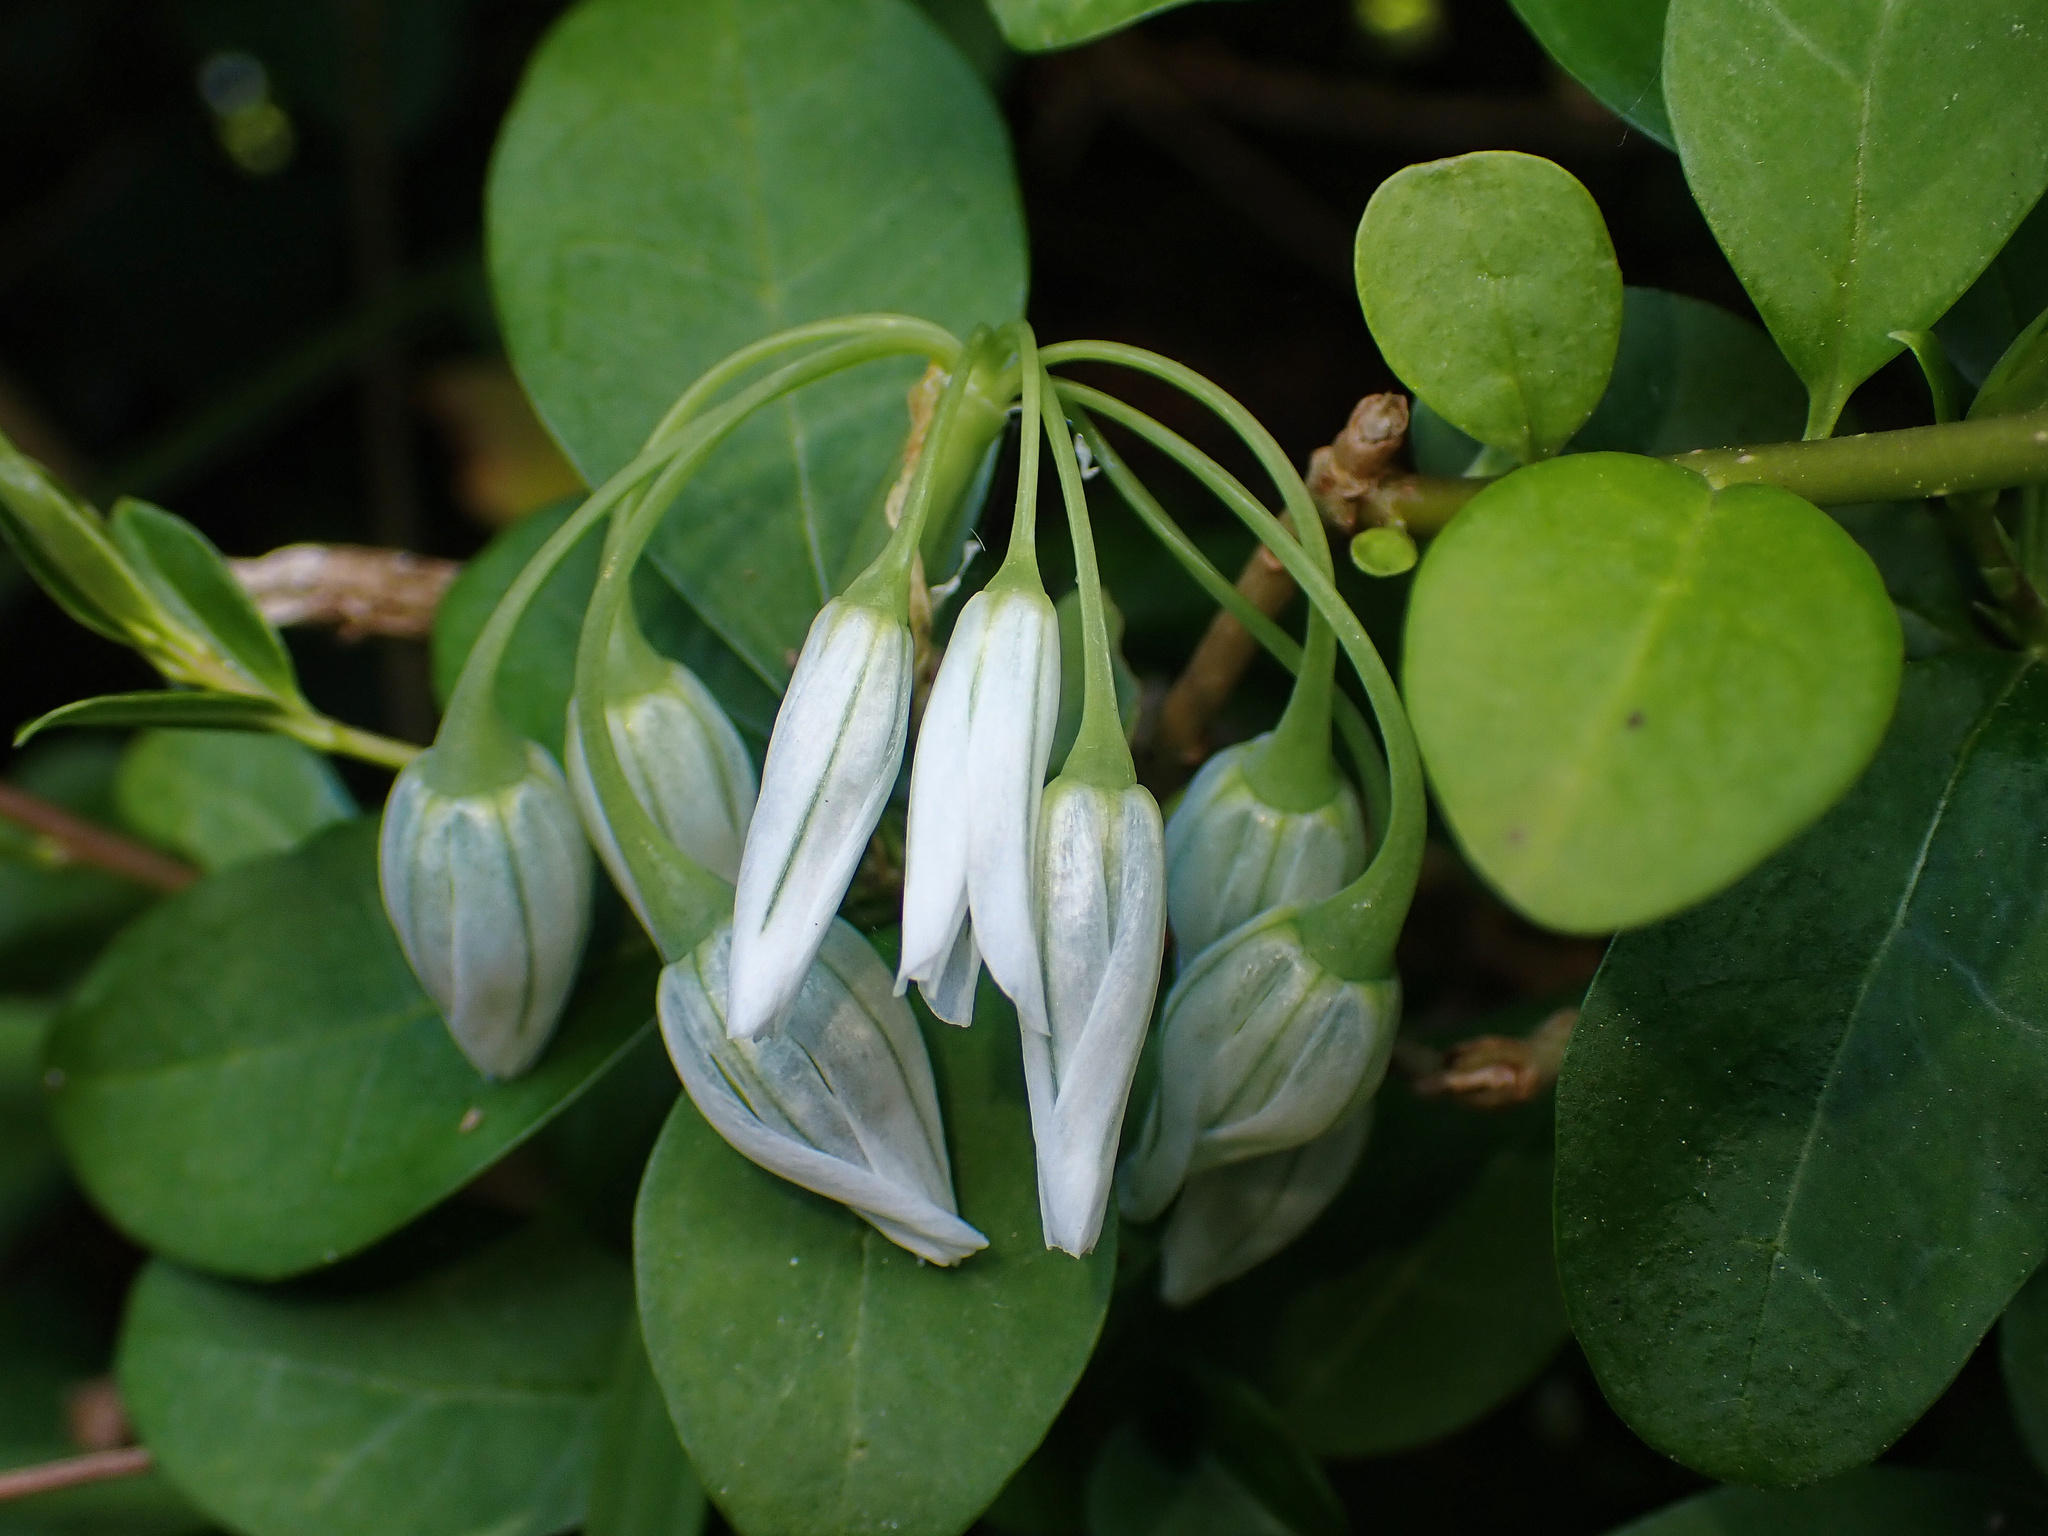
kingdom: Plantae
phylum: Tracheophyta
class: Liliopsida
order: Asparagales
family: Amaryllidaceae
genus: Allium
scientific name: Allium triquetrum
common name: Three-cornered garlic
